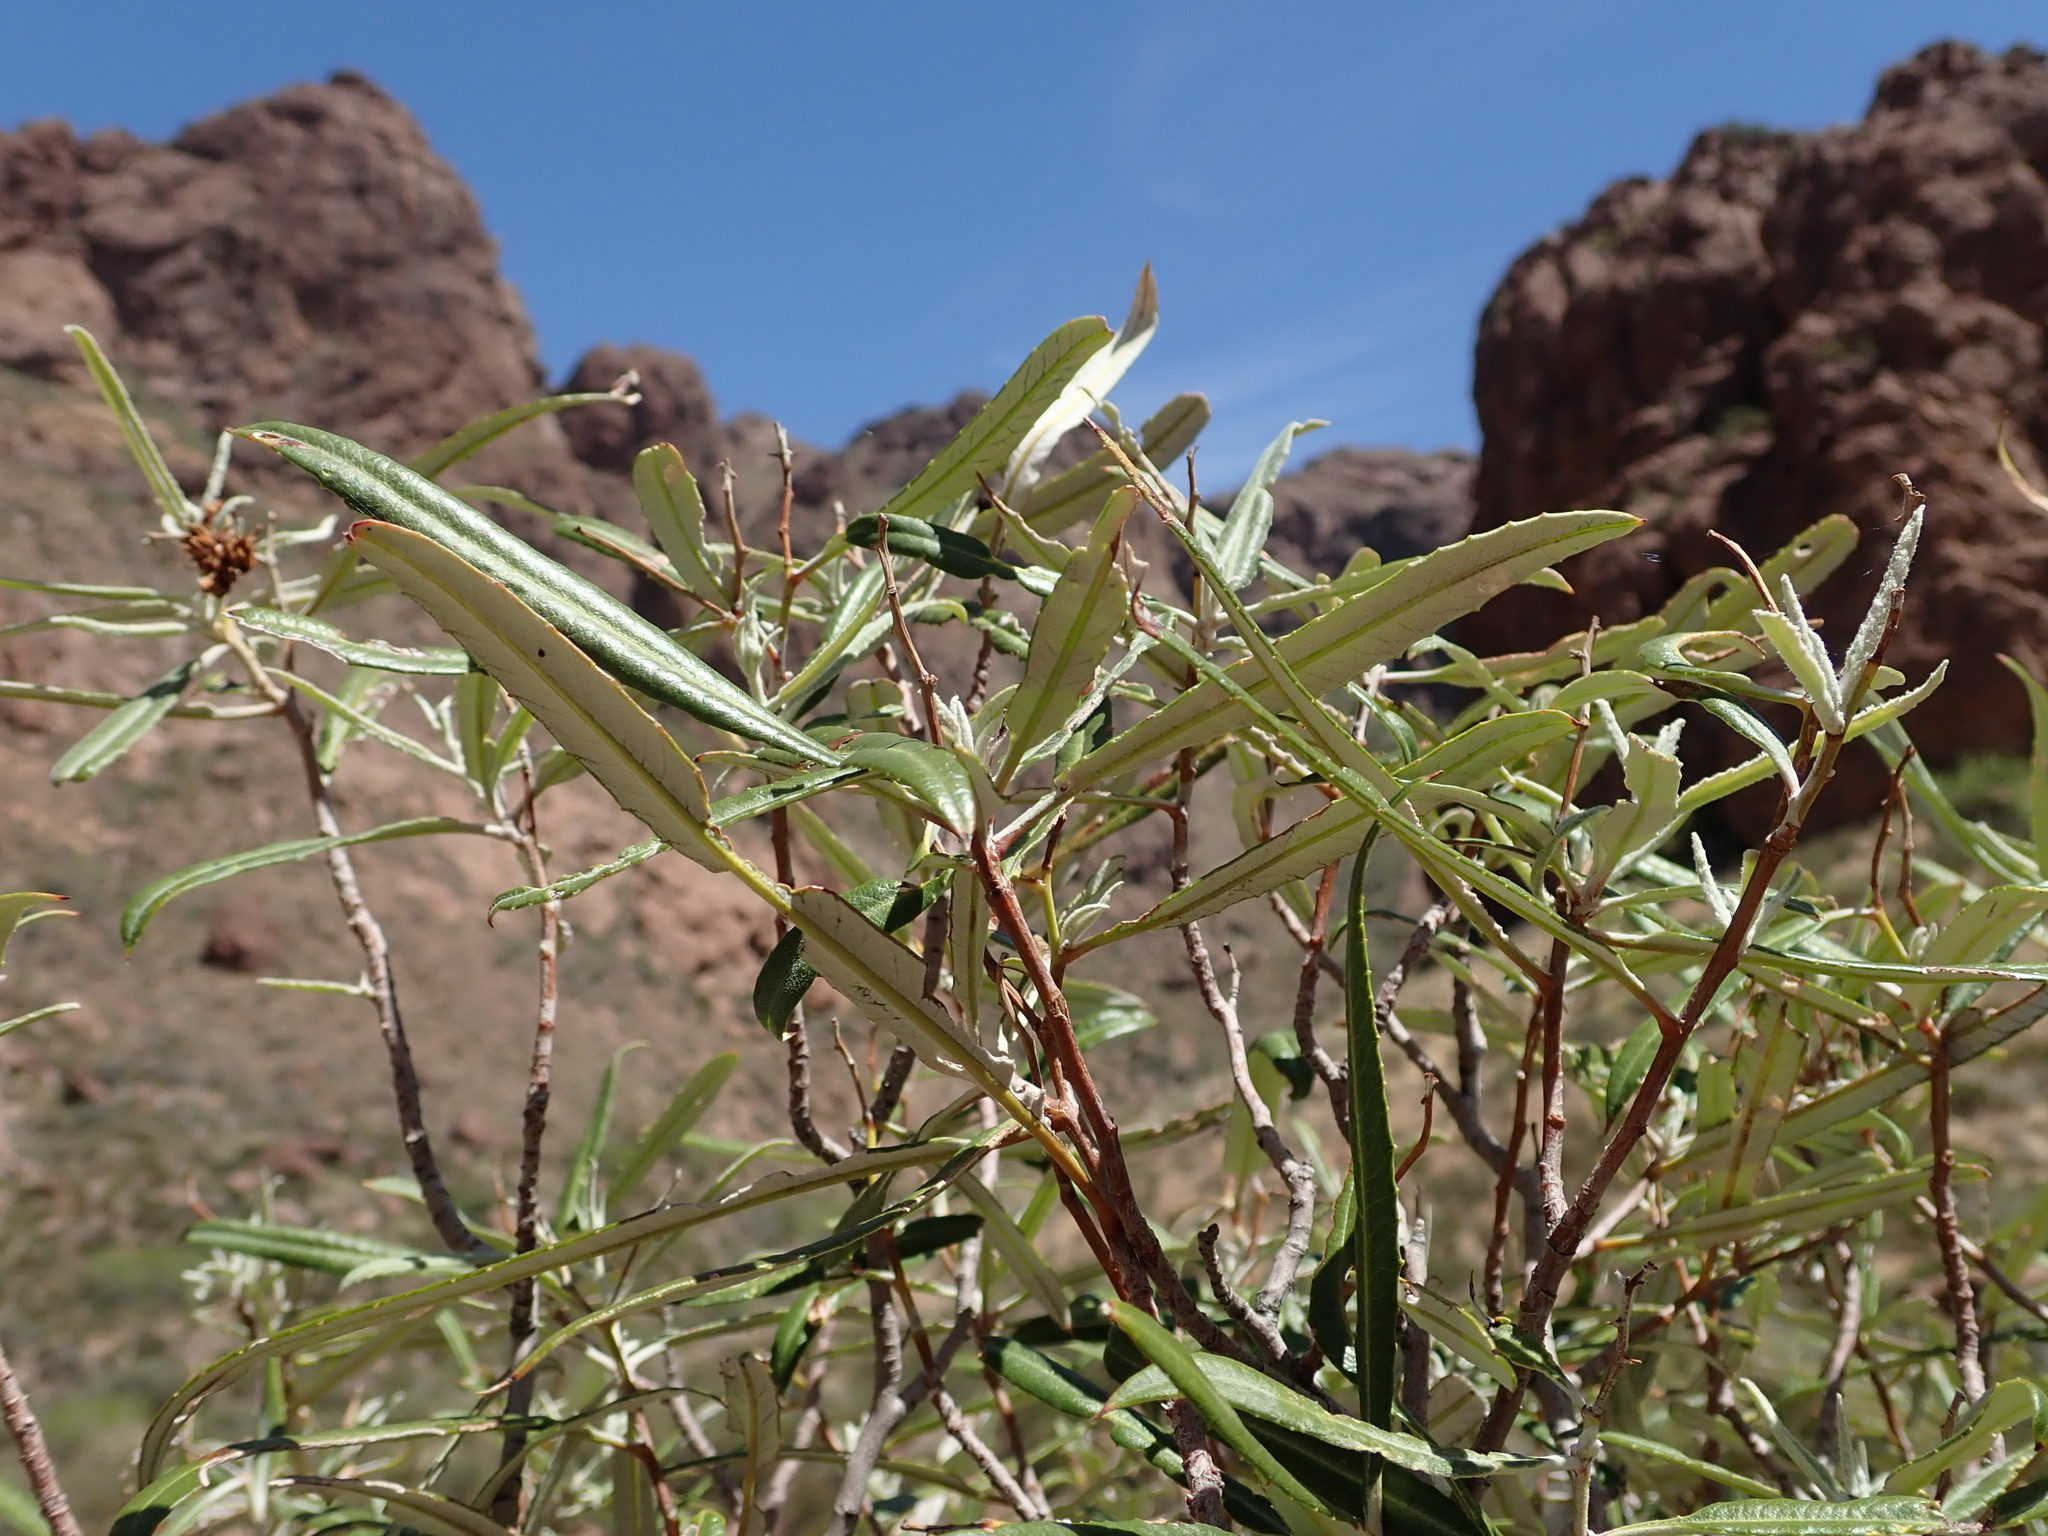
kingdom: Plantae
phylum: Tracheophyta
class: Magnoliopsida
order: Rosales
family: Rosaceae
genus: Vauquelinia
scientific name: Vauquelinia californica
